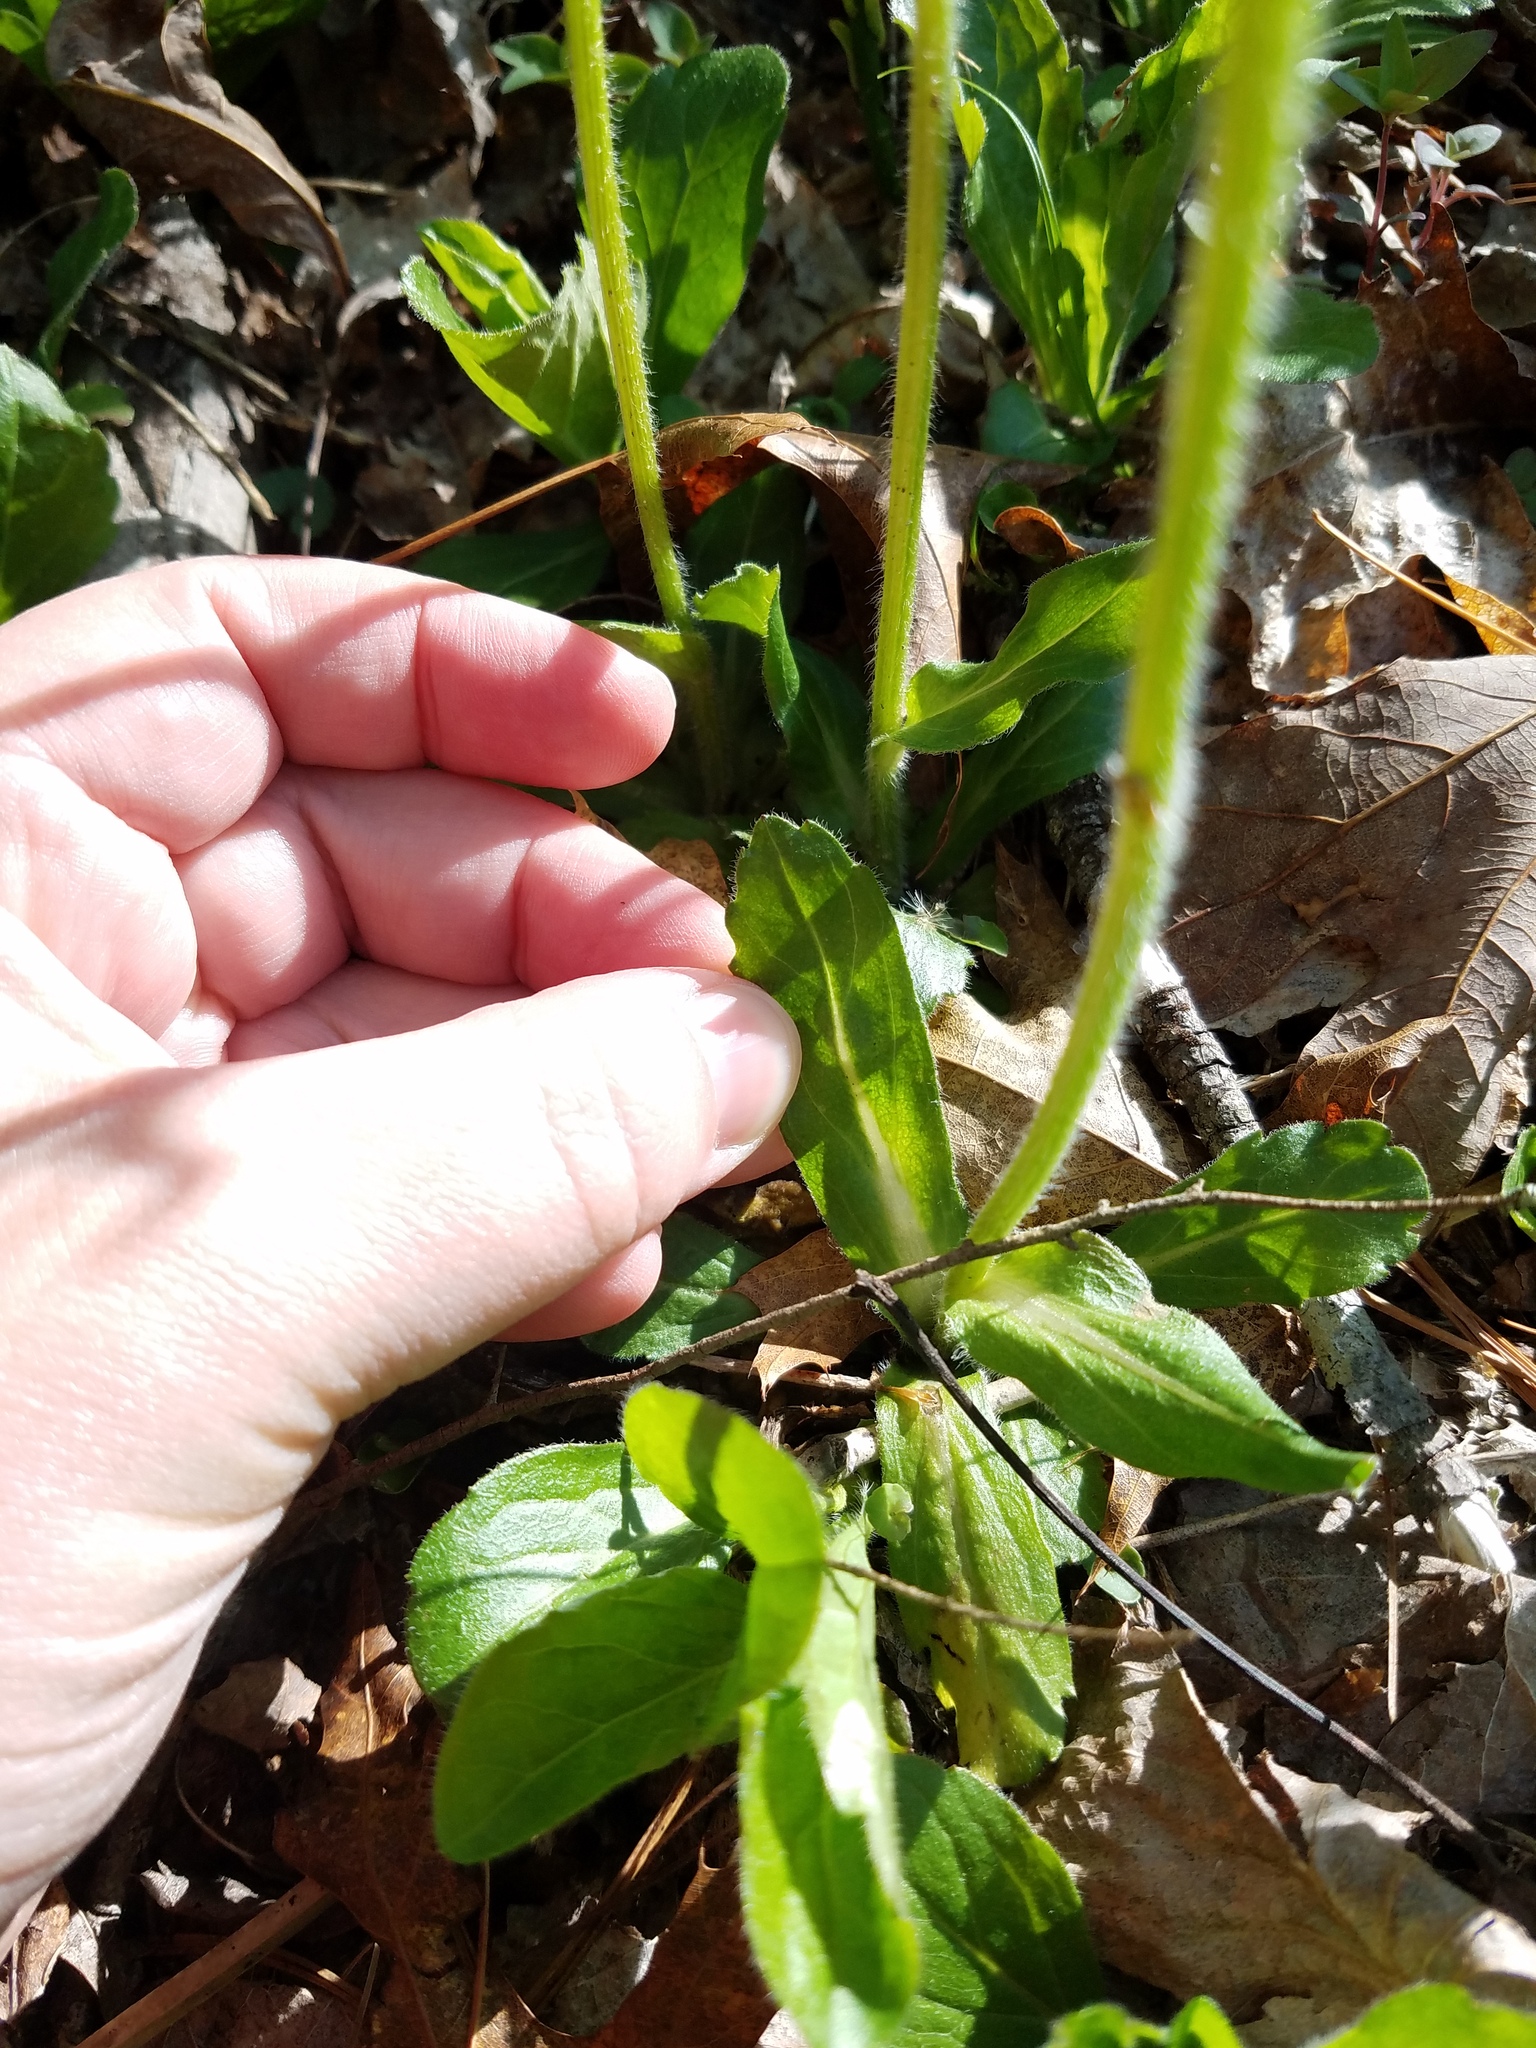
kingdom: Plantae
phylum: Tracheophyta
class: Magnoliopsida
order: Asterales
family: Asteraceae
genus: Erigeron
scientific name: Erigeron pulchellus
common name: Hairy fleabane
